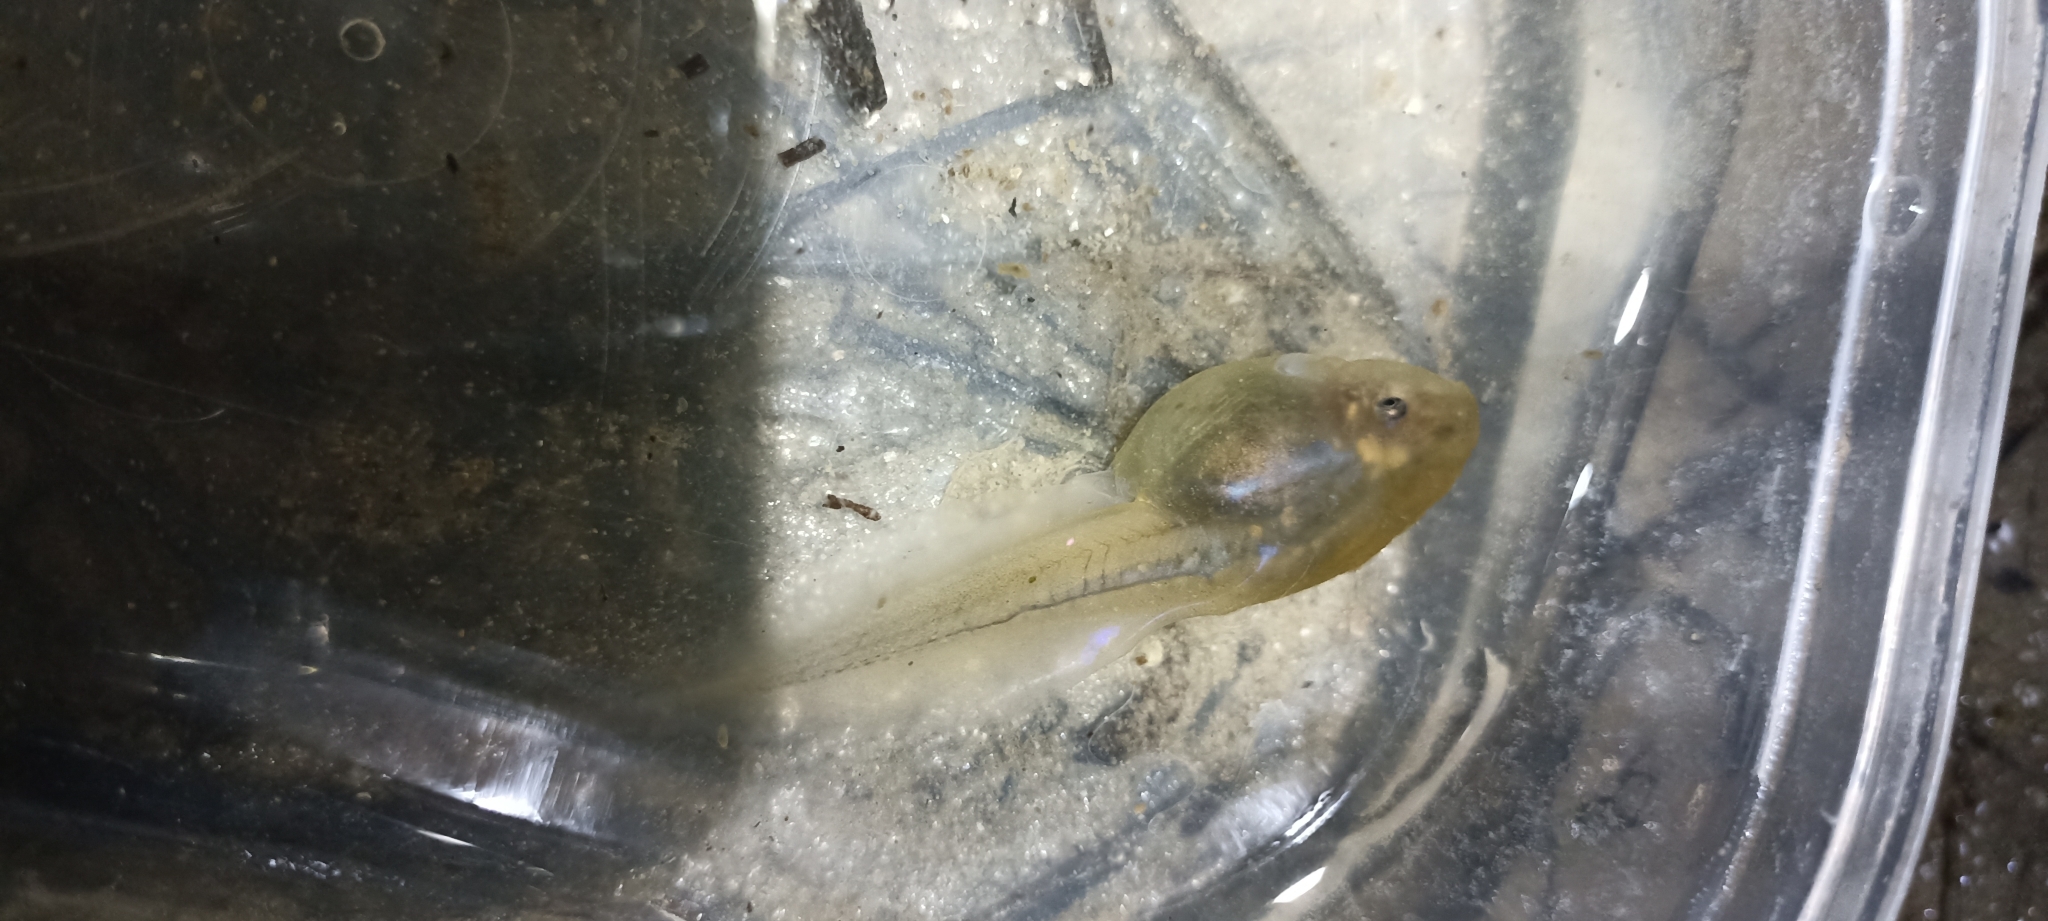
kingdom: Animalia
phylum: Chordata
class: Amphibia
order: Anura
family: Pelobatidae
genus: Pelobates
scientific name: Pelobates cultripes
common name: Western spadefoot
